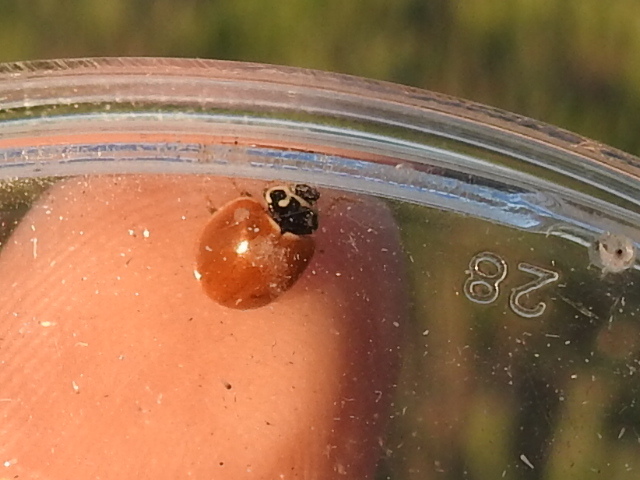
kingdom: Animalia
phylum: Arthropoda
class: Insecta
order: Coleoptera
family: Coccinellidae
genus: Cycloneda
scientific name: Cycloneda munda
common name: Polished lady beetle
